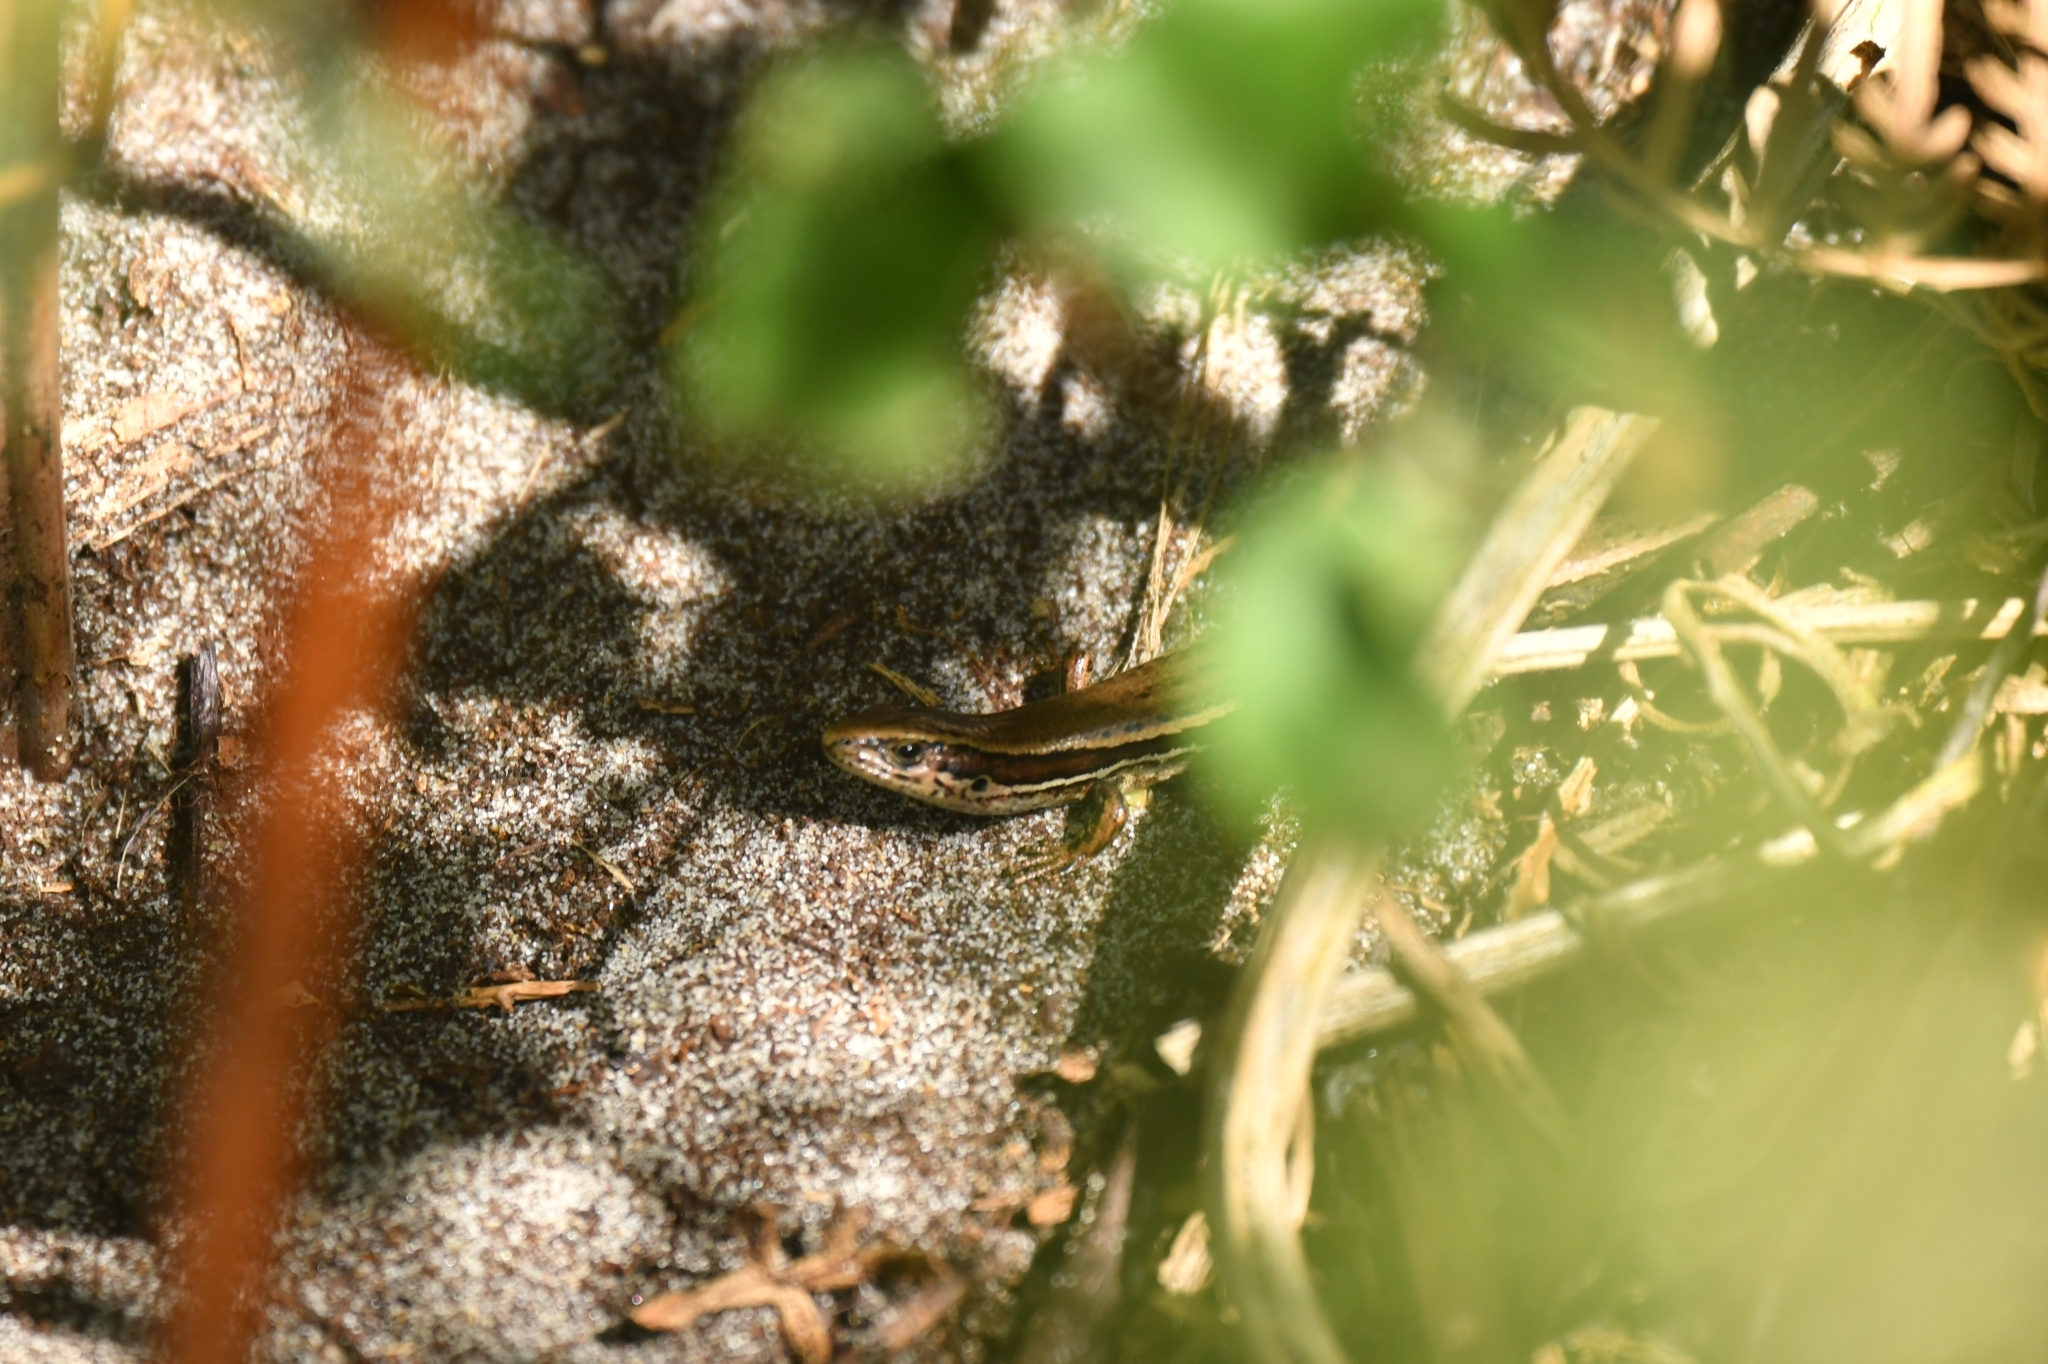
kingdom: Animalia
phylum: Chordata
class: Squamata
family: Scincidae
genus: Oligosoma
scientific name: Oligosoma inconspicuum
